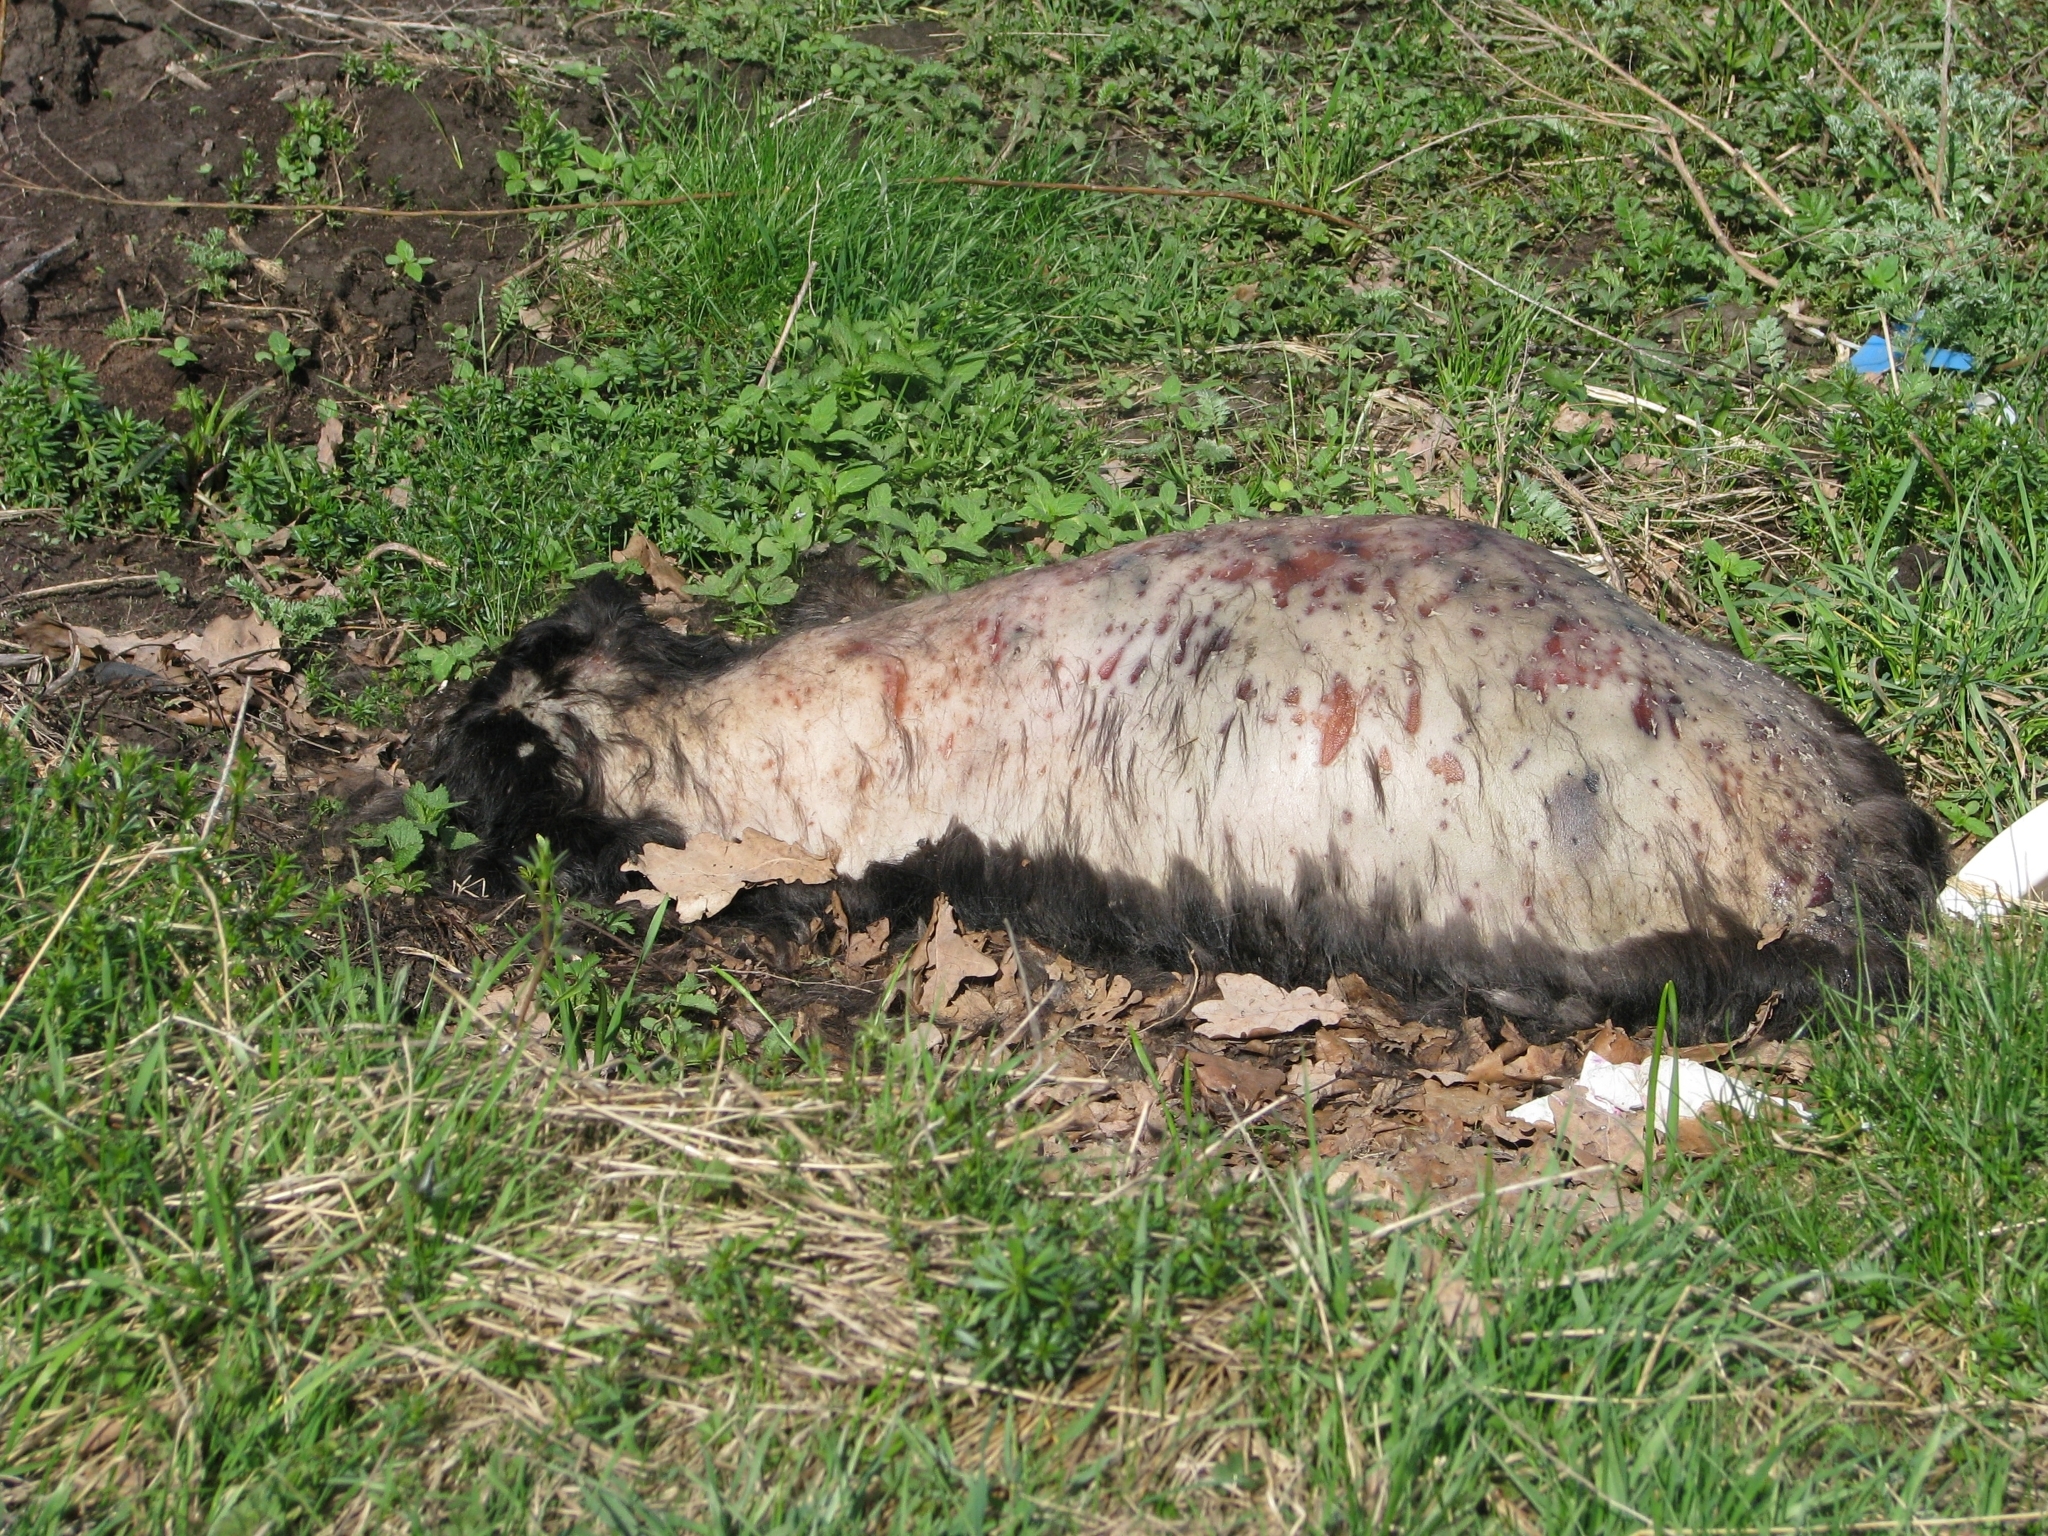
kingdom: Animalia
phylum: Chordata
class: Mammalia
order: Carnivora
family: Canidae
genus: Canis
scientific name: Canis lupus
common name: Gray wolf
